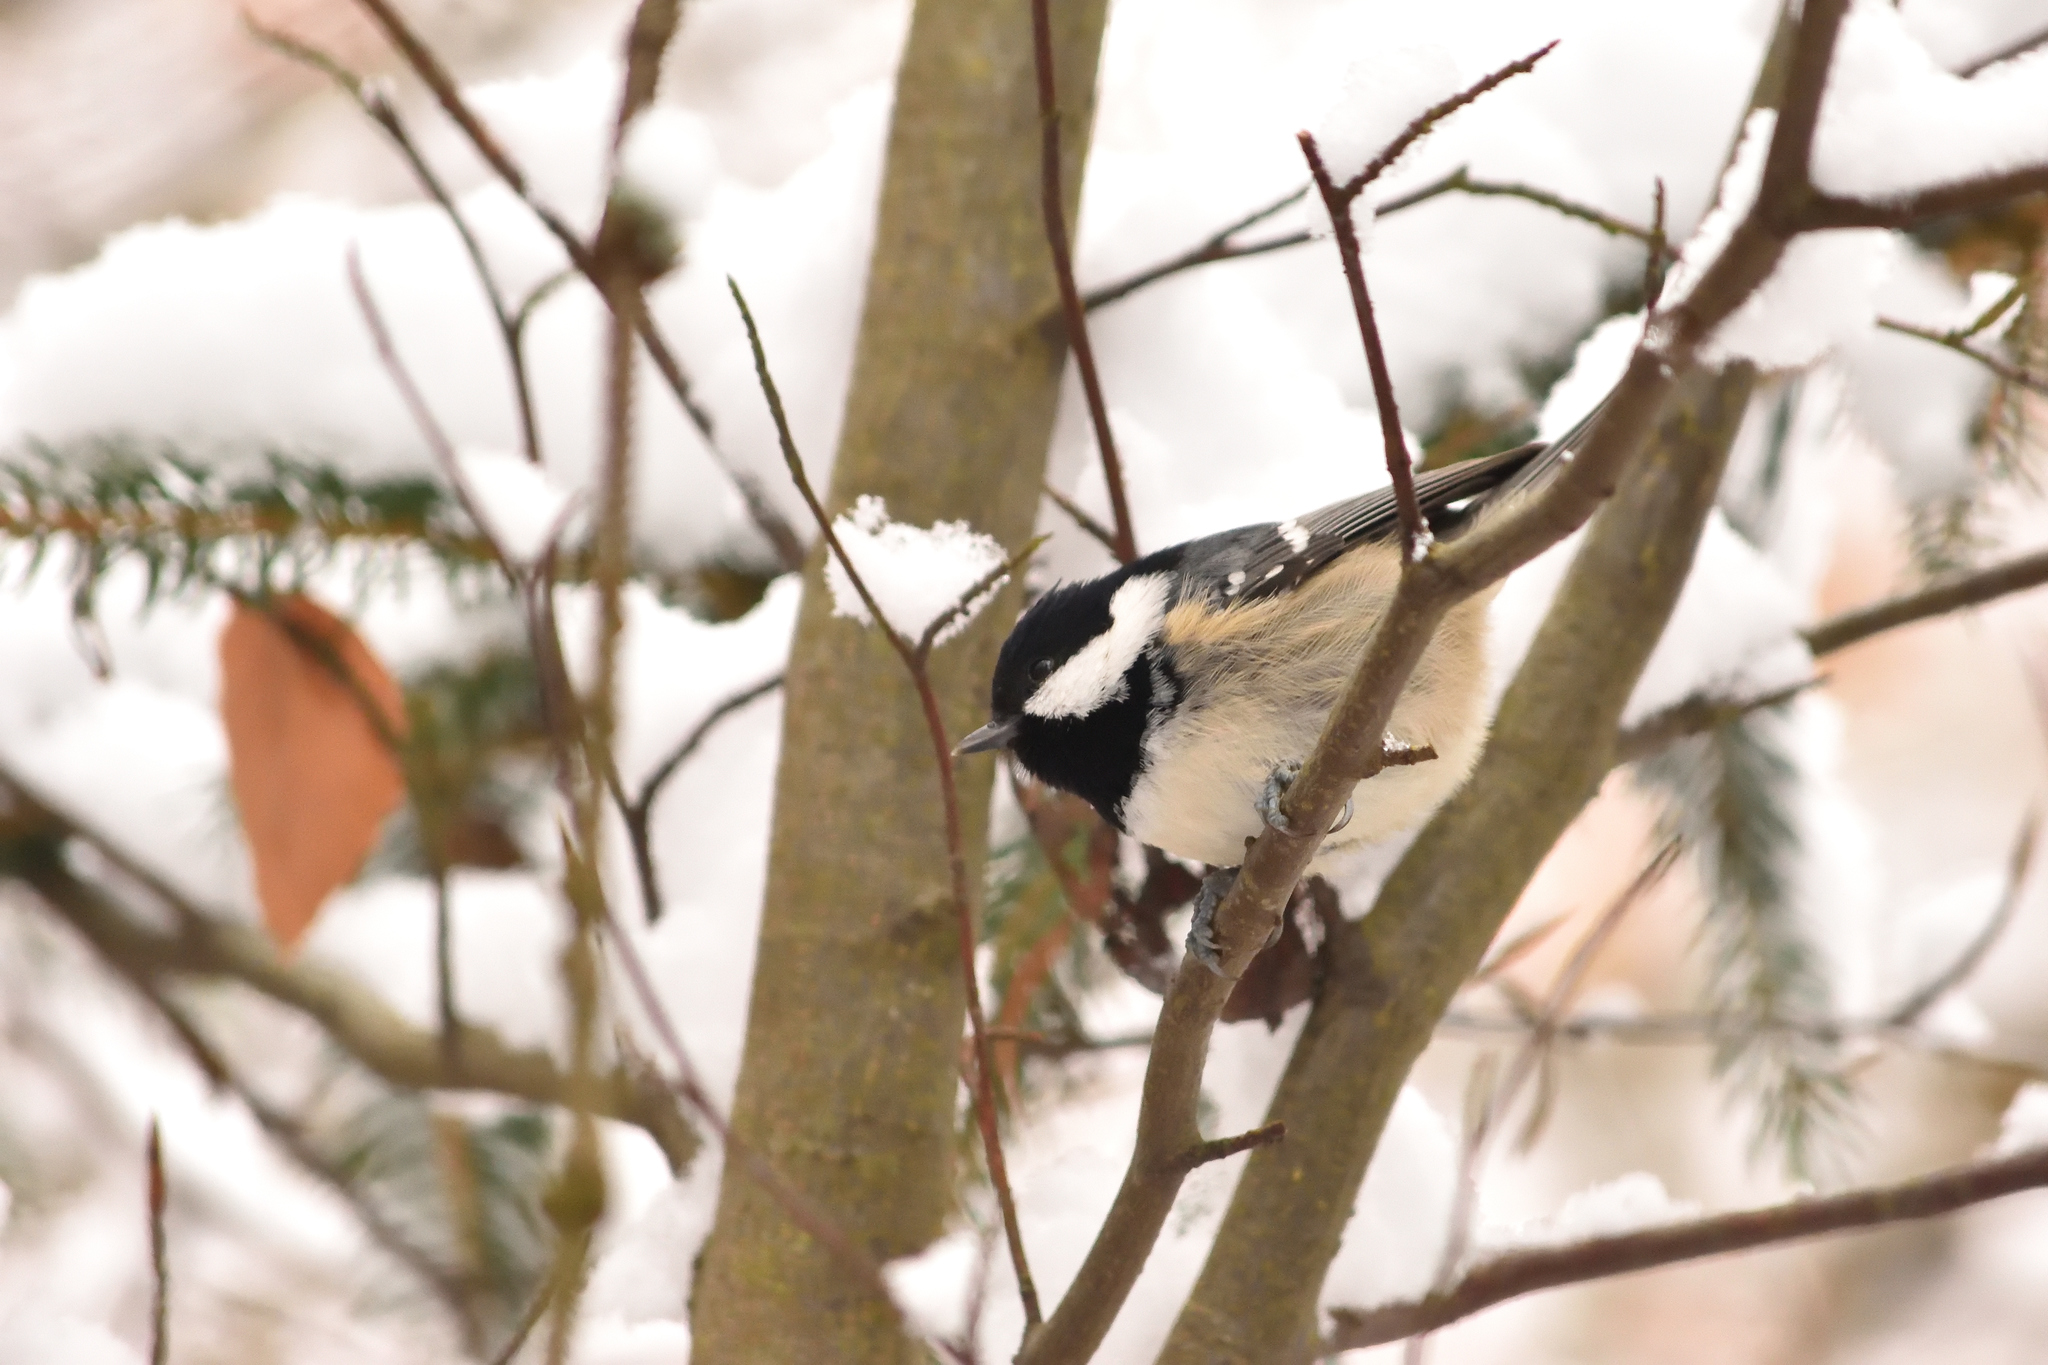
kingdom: Animalia
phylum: Chordata
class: Aves
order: Passeriformes
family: Paridae
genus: Periparus
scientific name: Periparus ater
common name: Coal tit
